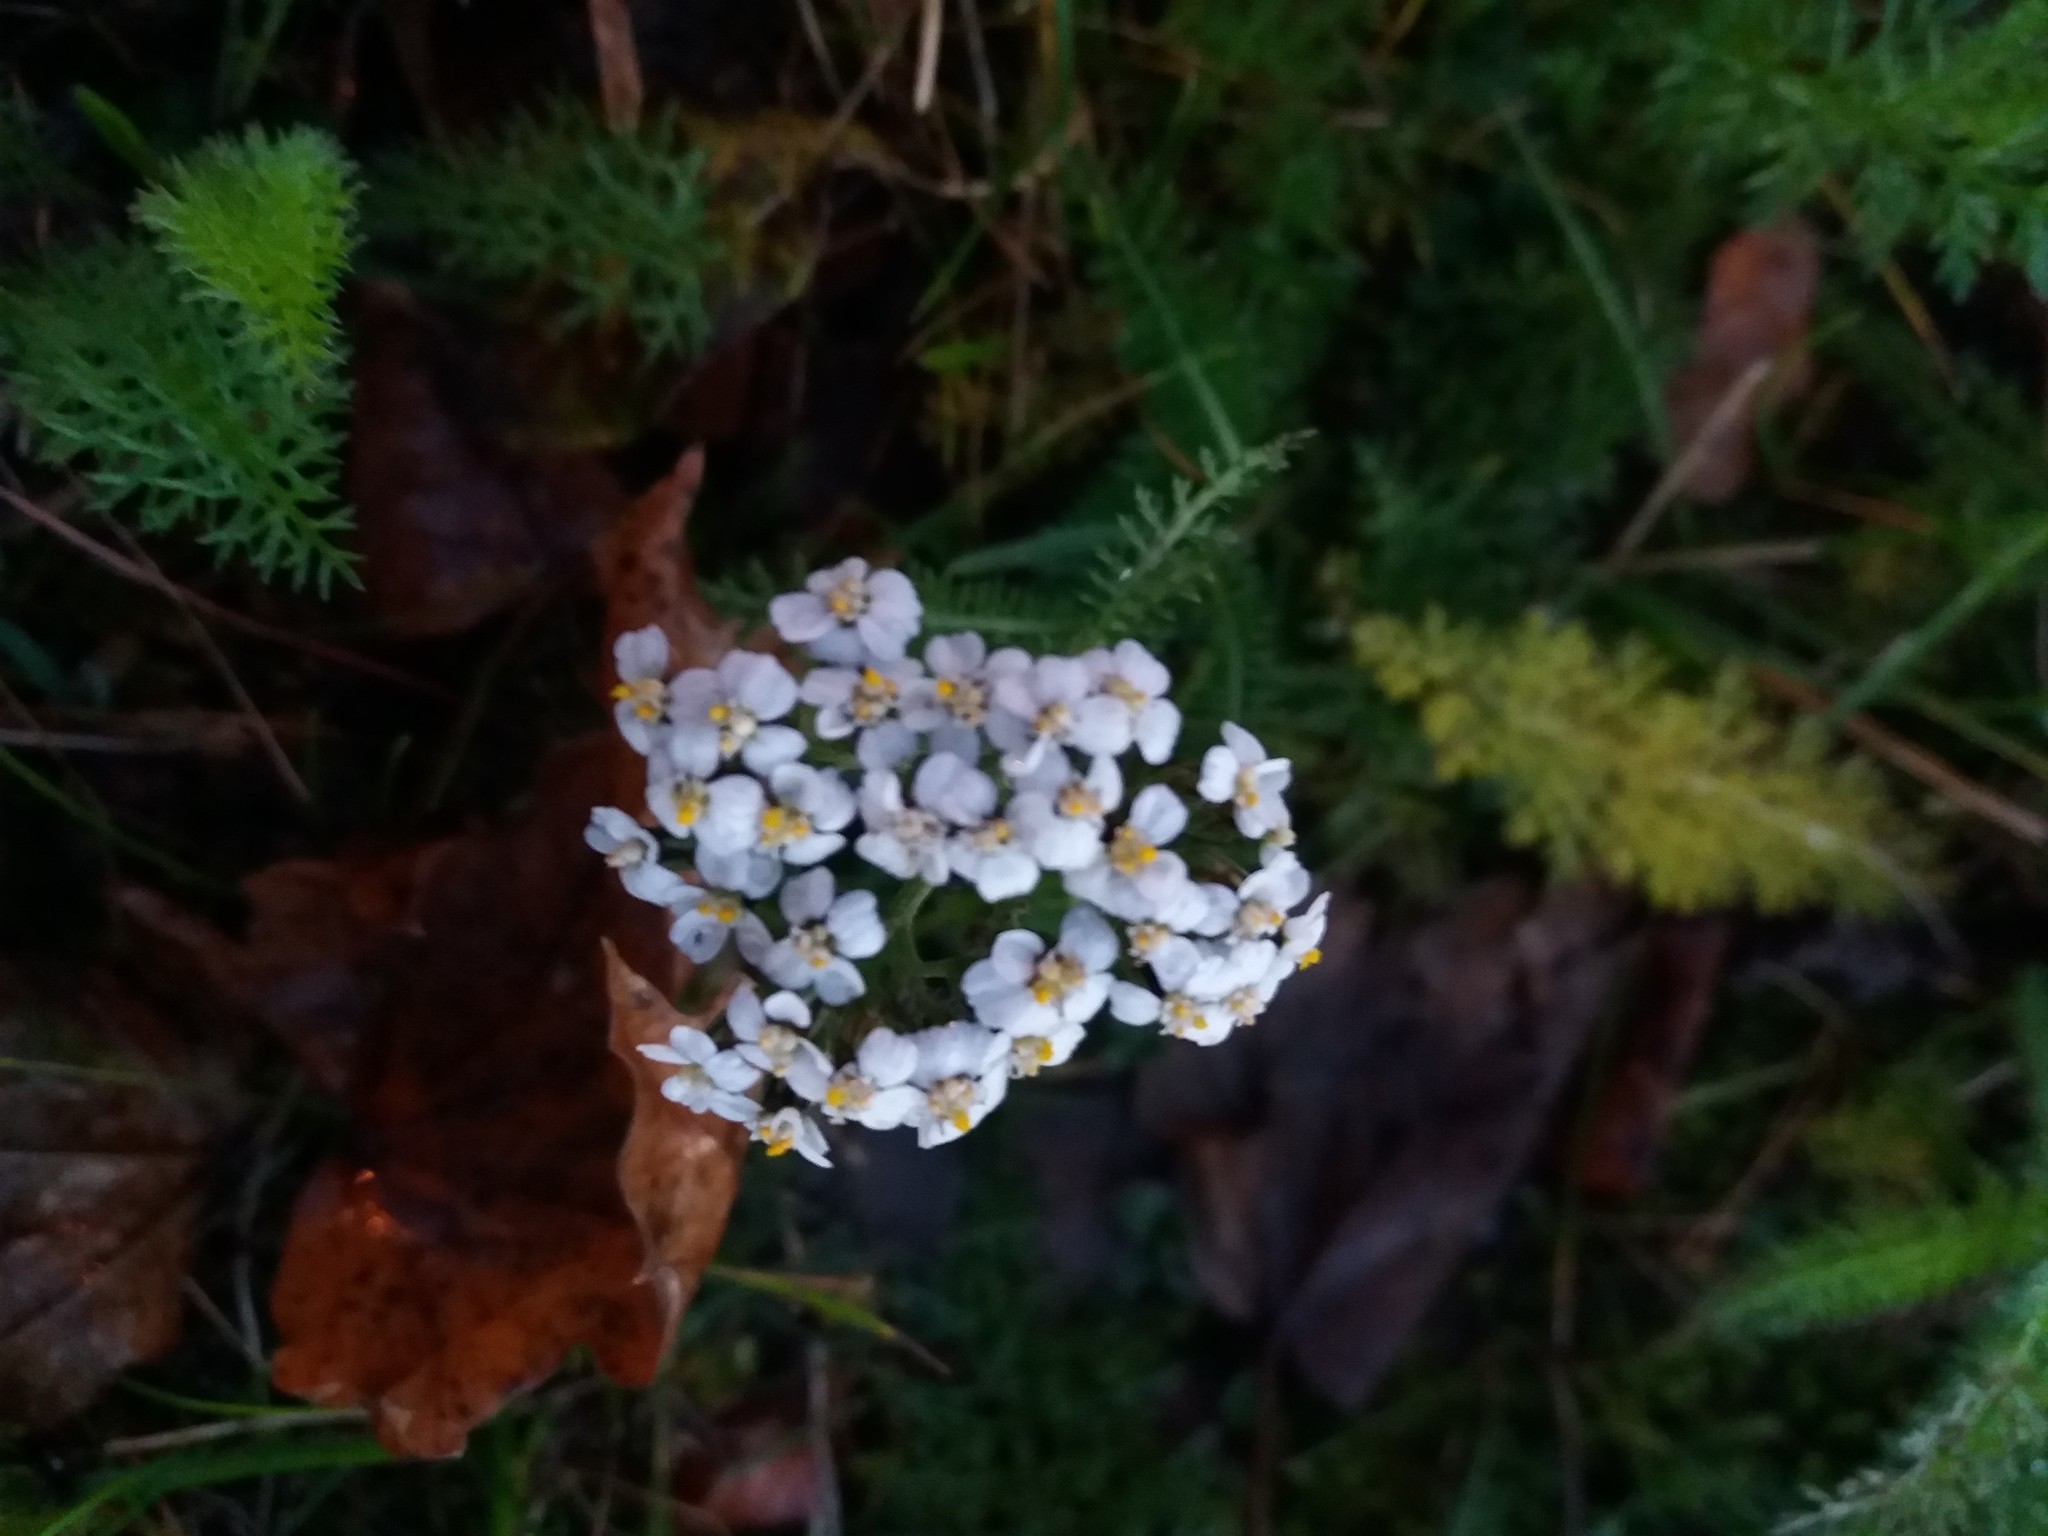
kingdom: Plantae
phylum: Tracheophyta
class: Magnoliopsida
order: Asterales
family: Asteraceae
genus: Achillea
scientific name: Achillea millefolium
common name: Yarrow
